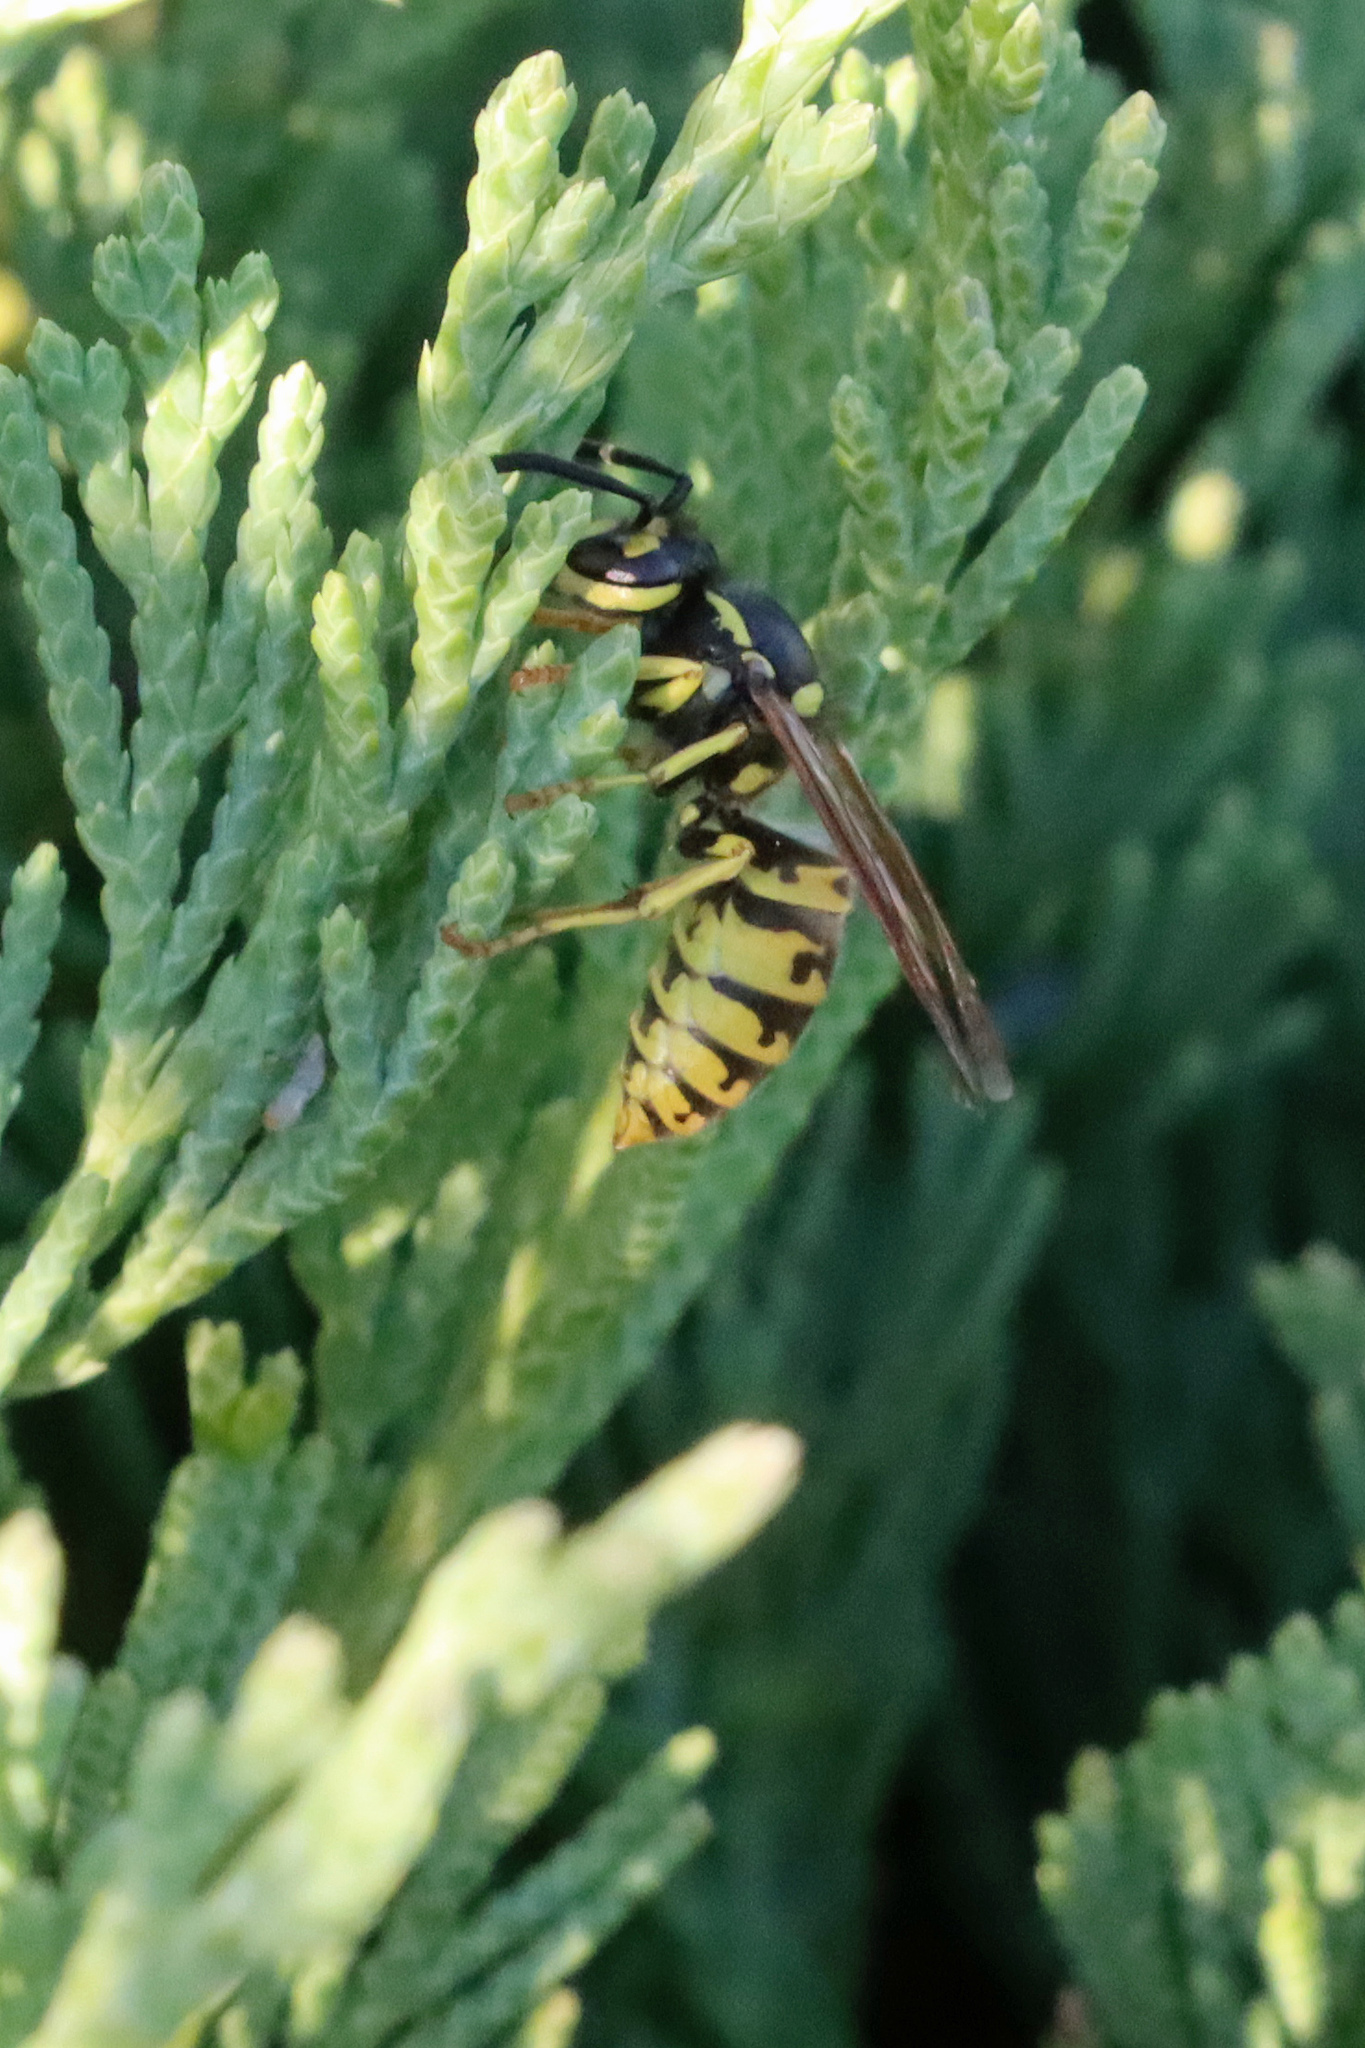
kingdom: Animalia
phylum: Arthropoda
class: Insecta
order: Hymenoptera
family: Vespidae
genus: Vespula
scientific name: Vespula germanica
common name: German wasp
